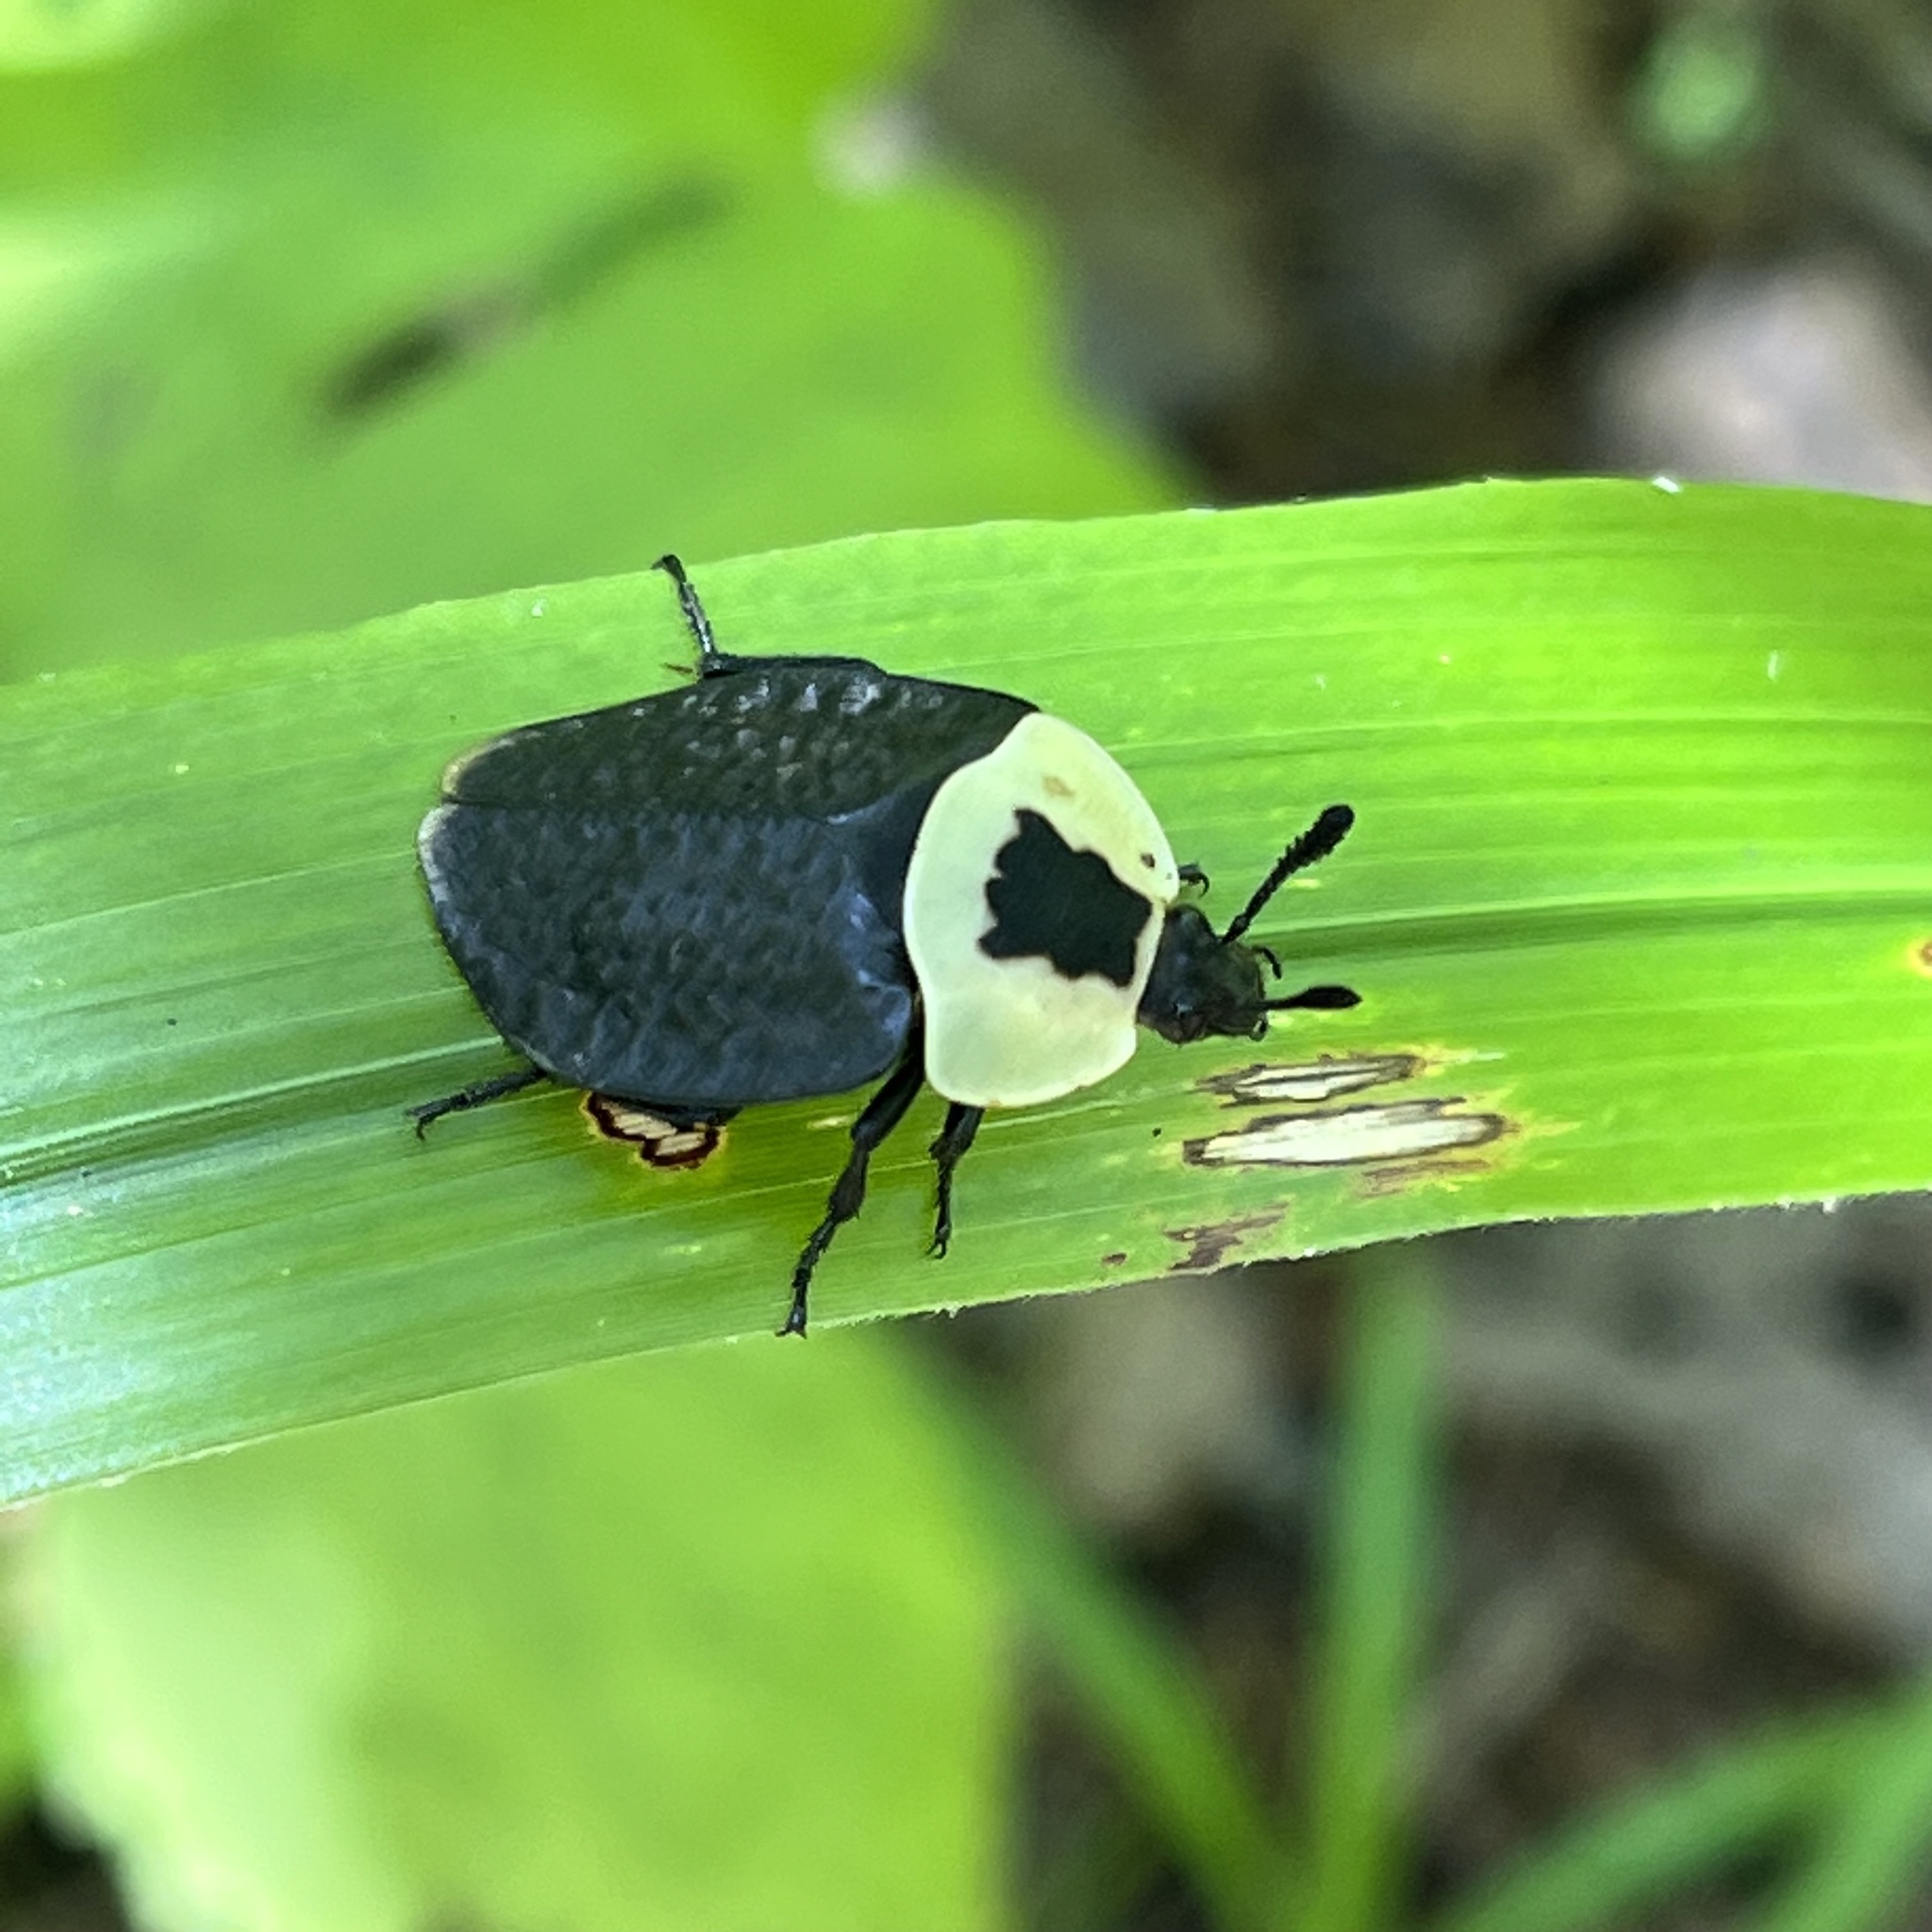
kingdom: Animalia
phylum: Arthropoda
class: Insecta
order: Coleoptera
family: Staphylinidae
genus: Necrophila
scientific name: Necrophila americana
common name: American carrion beetle
